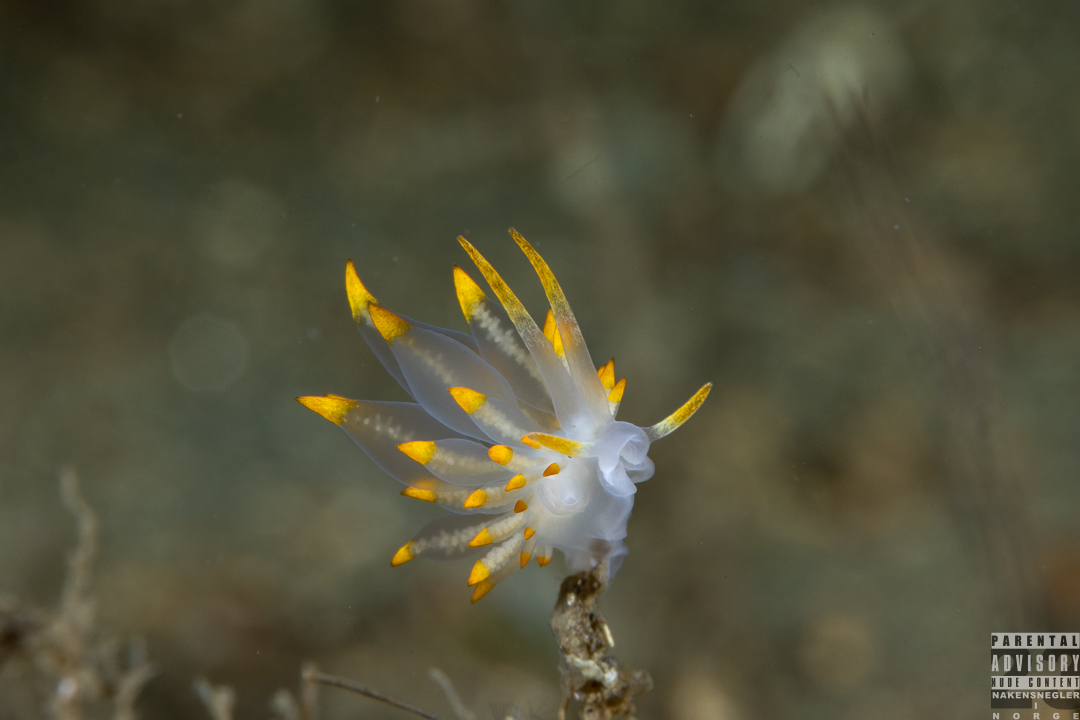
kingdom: Animalia
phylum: Mollusca
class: Gastropoda
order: Nudibranchia
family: Eubranchidae
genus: Amphorina
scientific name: Amphorina farrani
